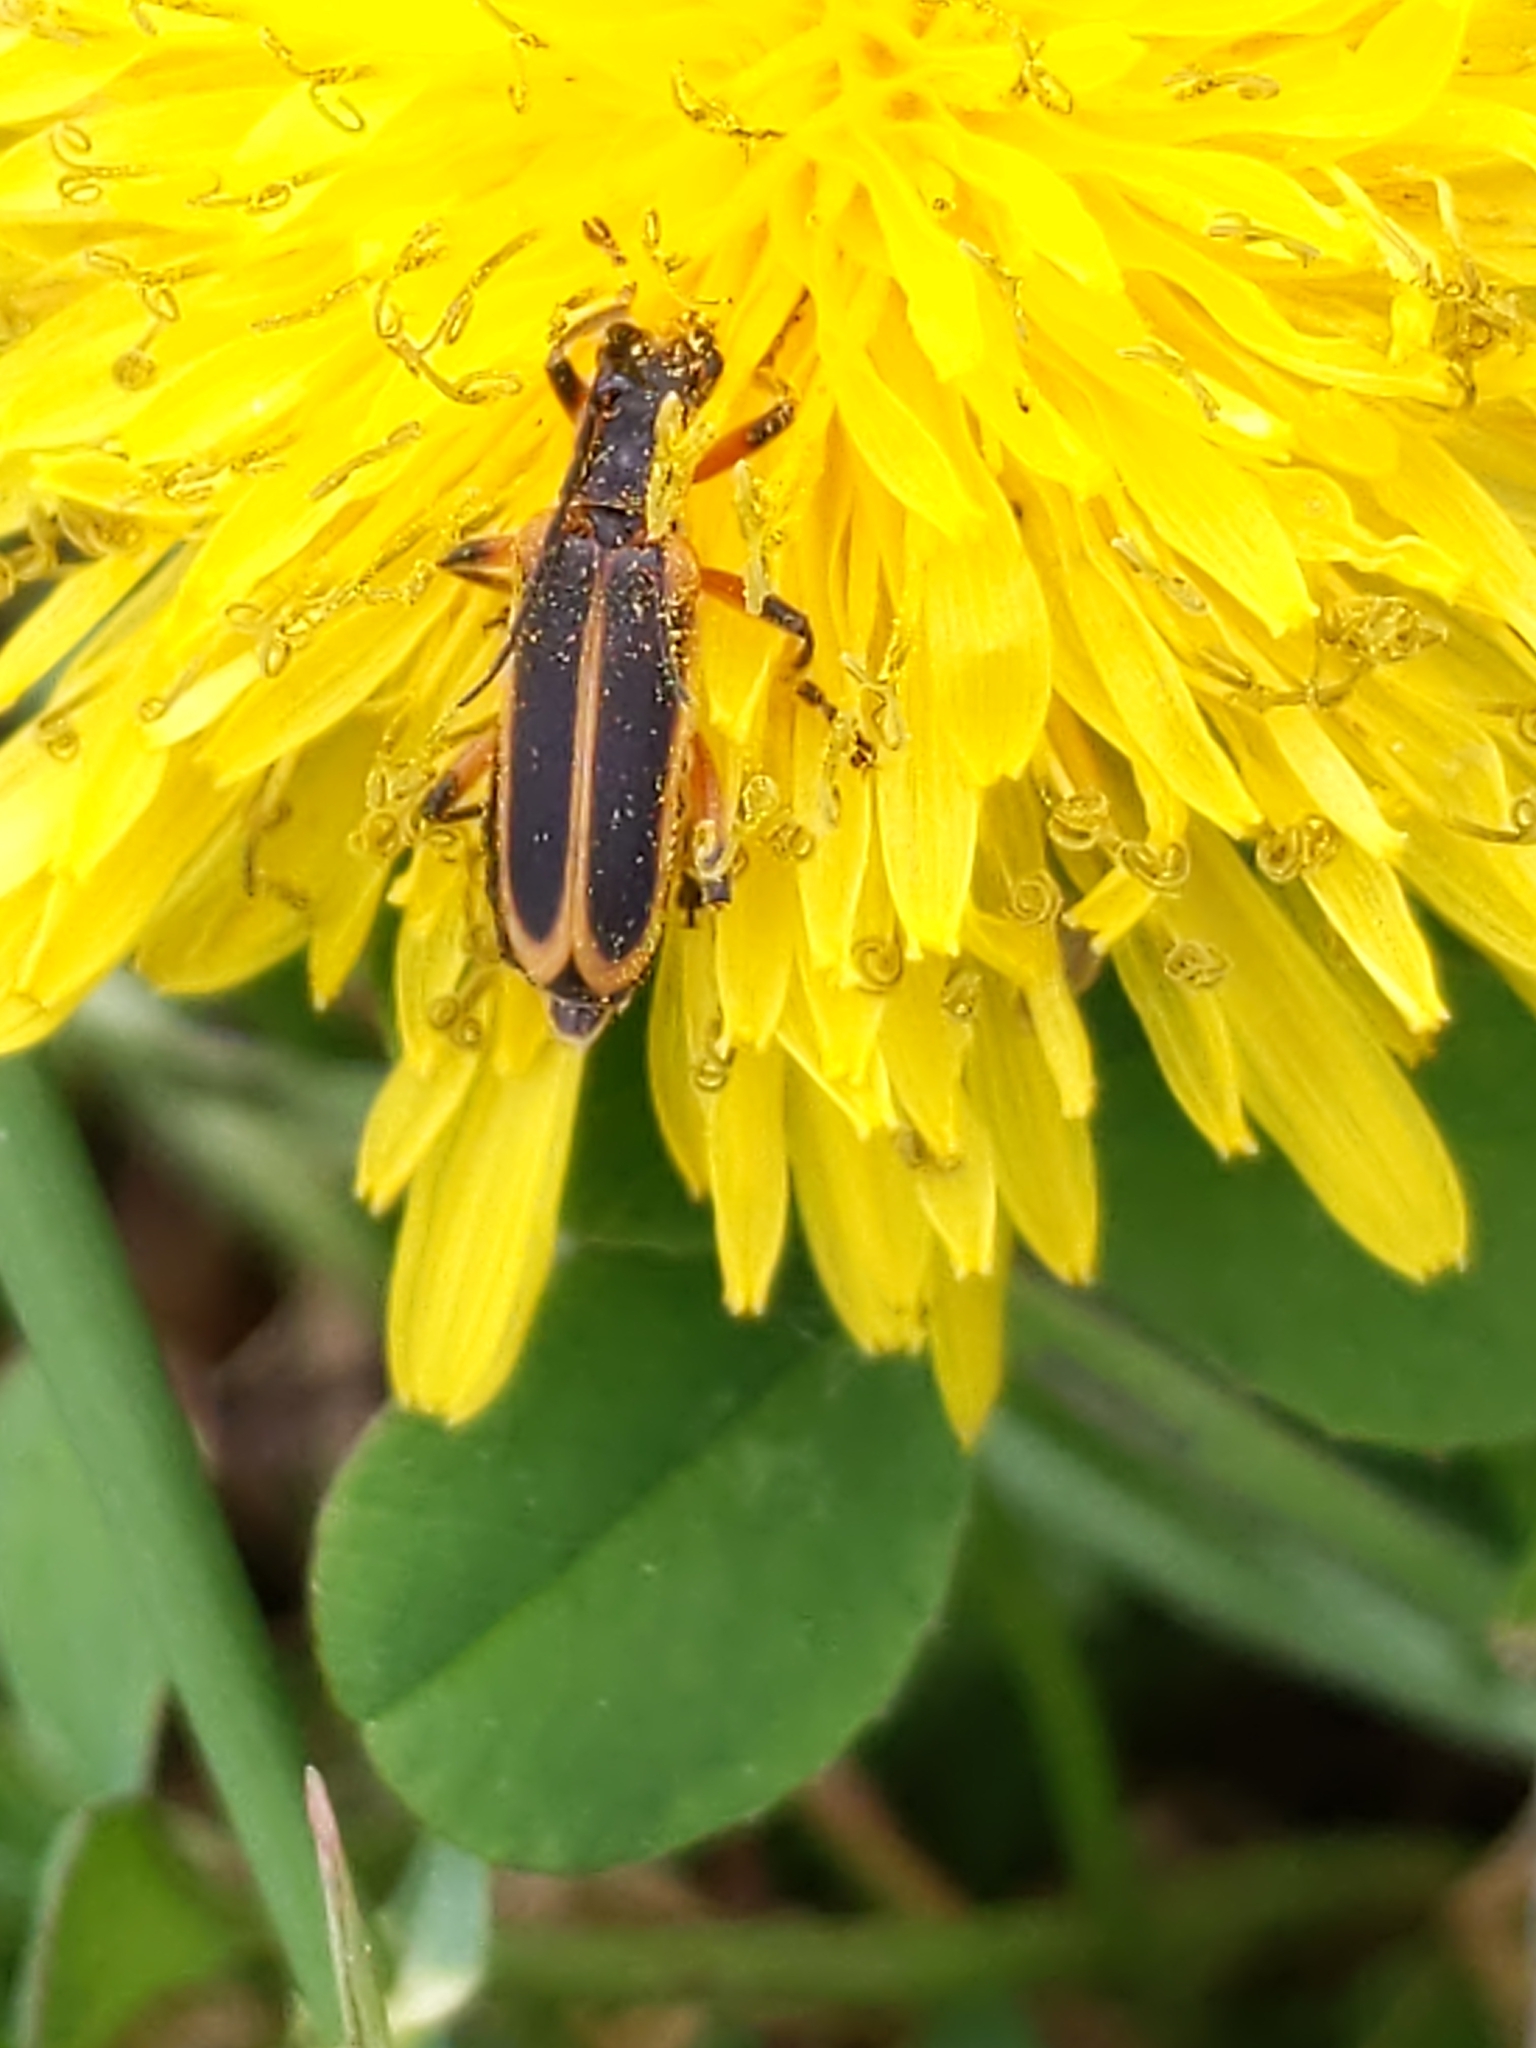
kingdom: Animalia
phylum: Arthropoda
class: Insecta
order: Coleoptera
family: Cantharidae
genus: Chauliognathus
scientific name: Chauliognathus marginatus
